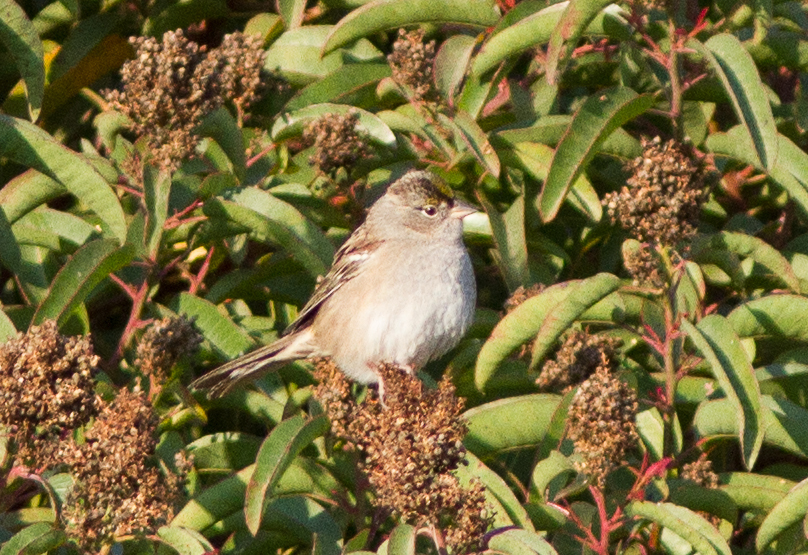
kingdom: Animalia
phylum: Chordata
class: Aves
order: Passeriformes
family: Passerellidae
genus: Zonotrichia
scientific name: Zonotrichia atricapilla
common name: Golden-crowned sparrow
